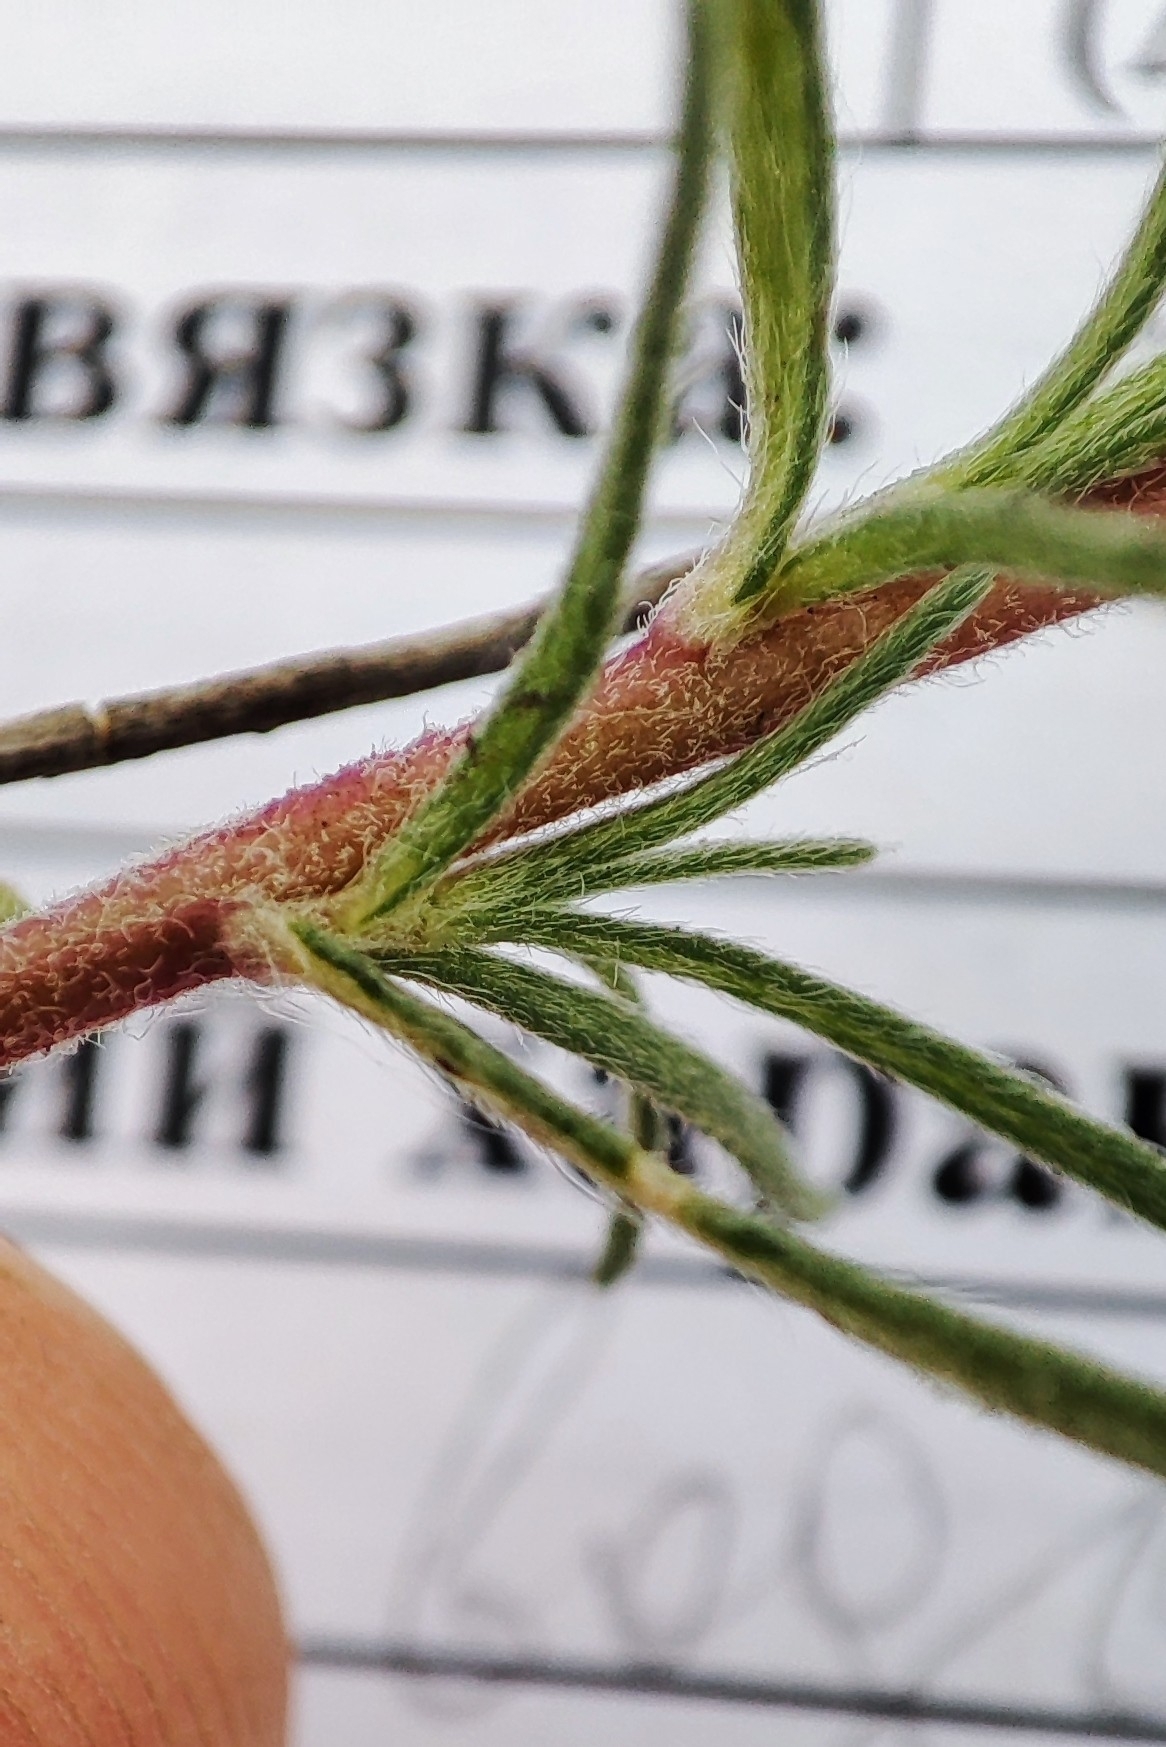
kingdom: Plantae
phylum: Tracheophyta
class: Magnoliopsida
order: Caryophyllales
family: Amaranthaceae
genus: Bassia
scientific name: Bassia prostrata
